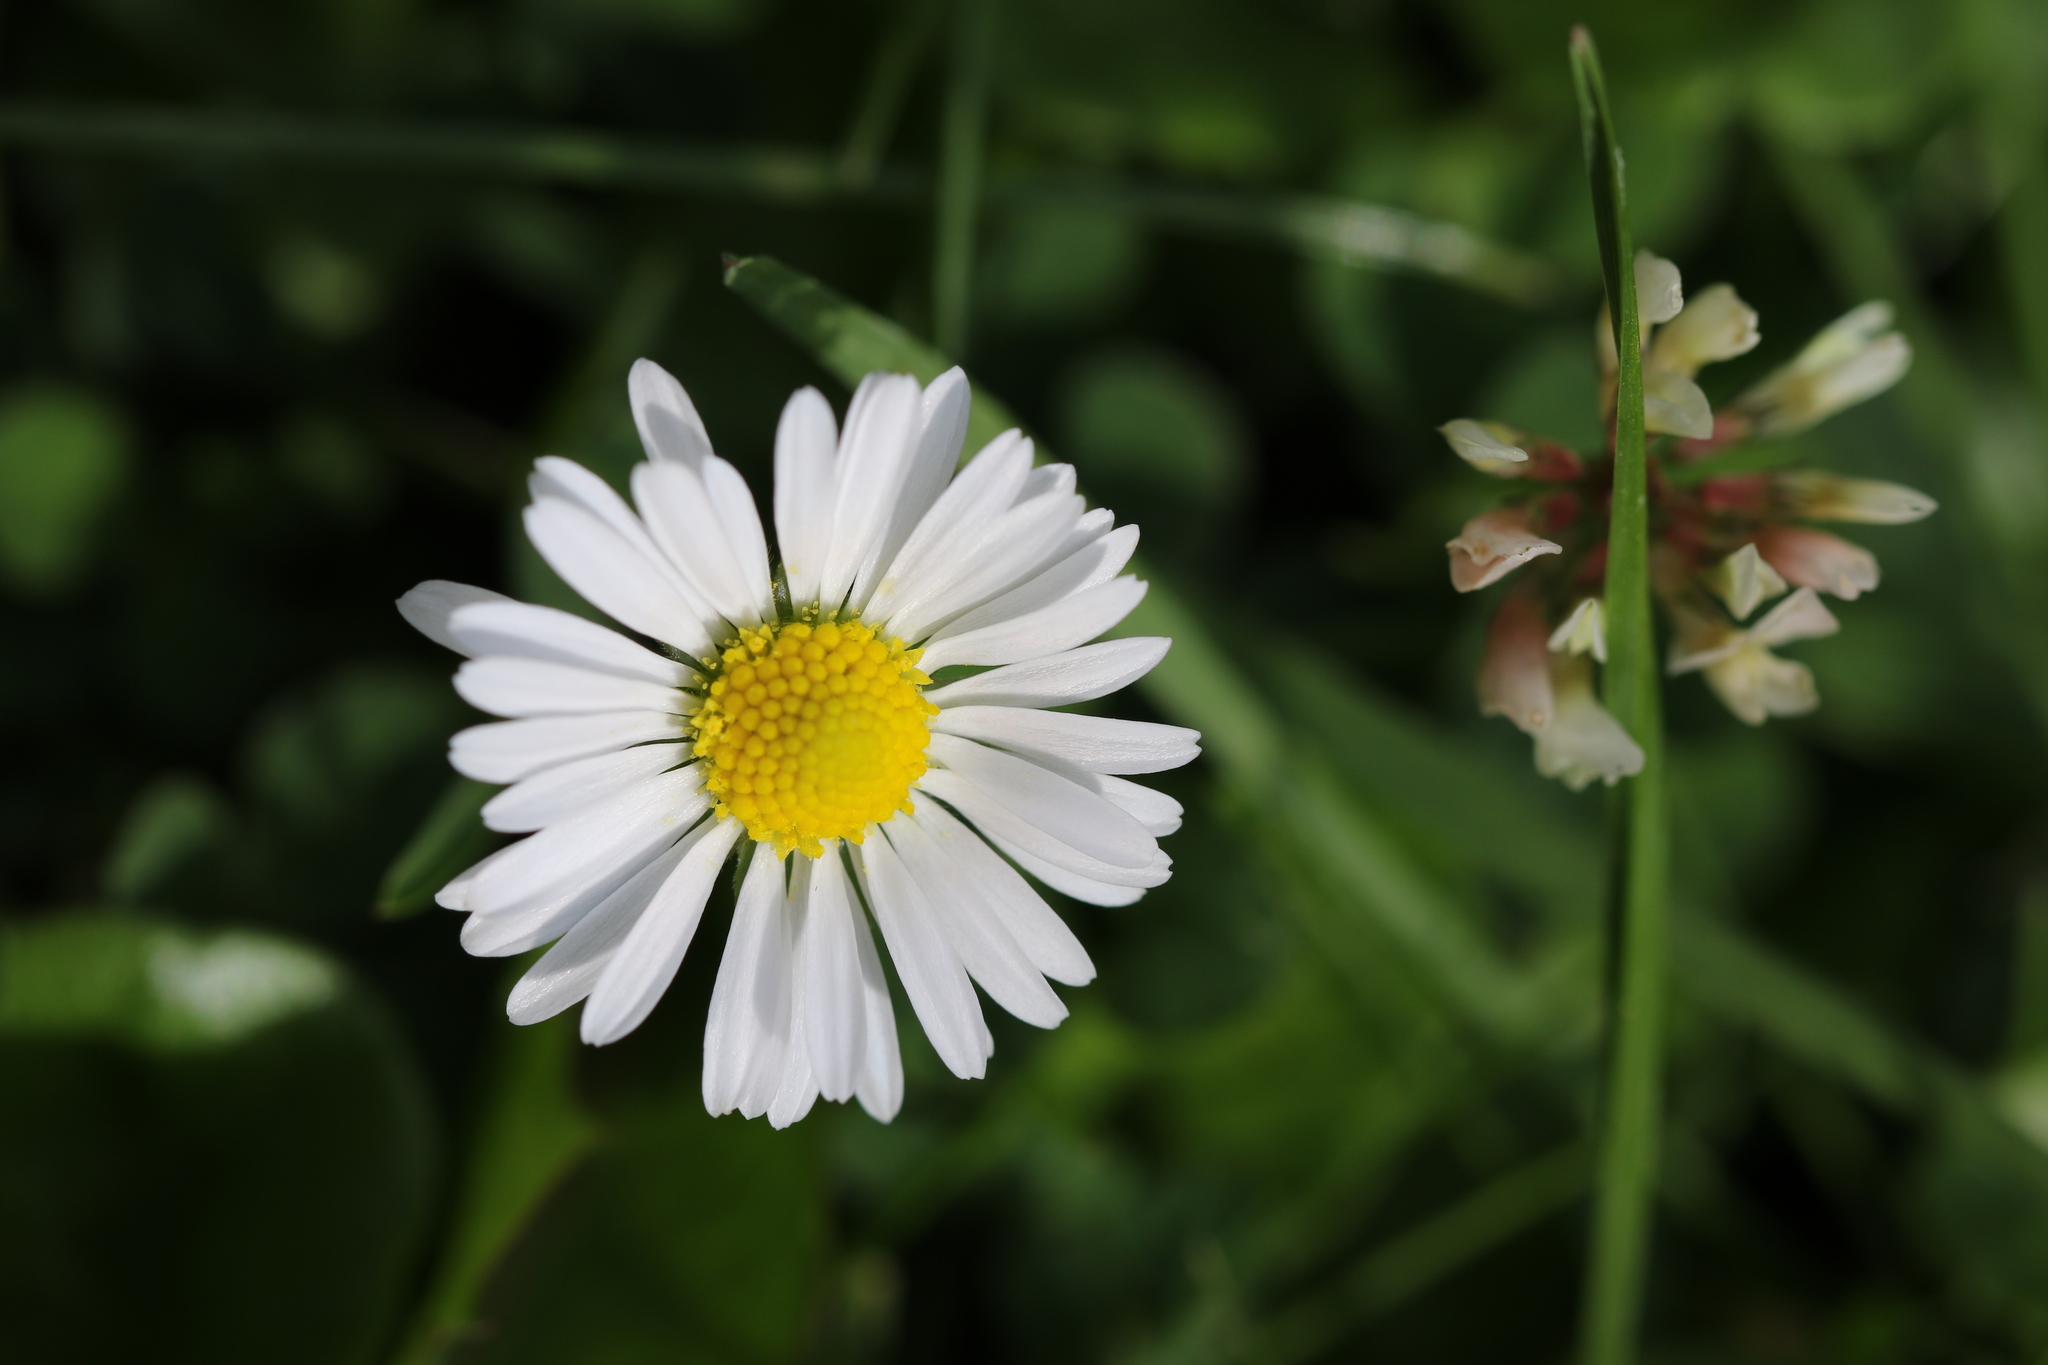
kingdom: Plantae
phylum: Tracheophyta
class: Magnoliopsida
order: Asterales
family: Asteraceae
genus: Bellis
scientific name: Bellis perennis
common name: Lawndaisy
